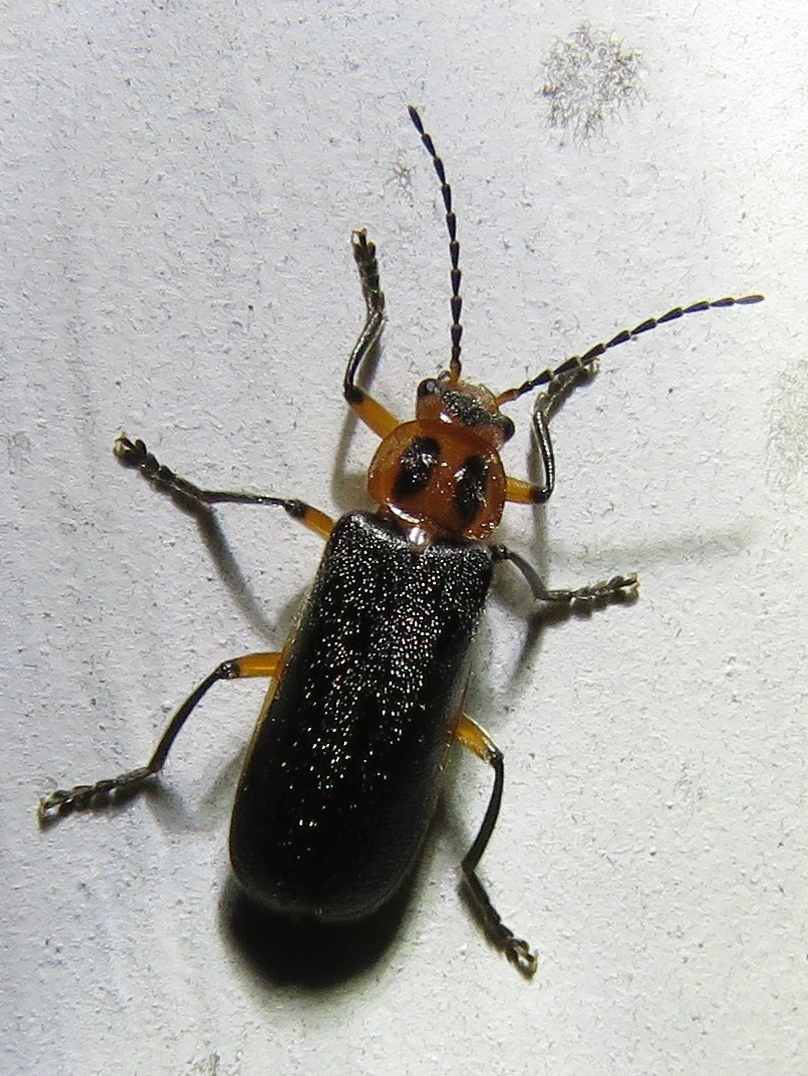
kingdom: Animalia
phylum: Arthropoda
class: Insecta
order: Coleoptera
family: Cantharidae
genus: Atalantycha
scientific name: Atalantycha bilineata
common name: Two-lined leatherwing
